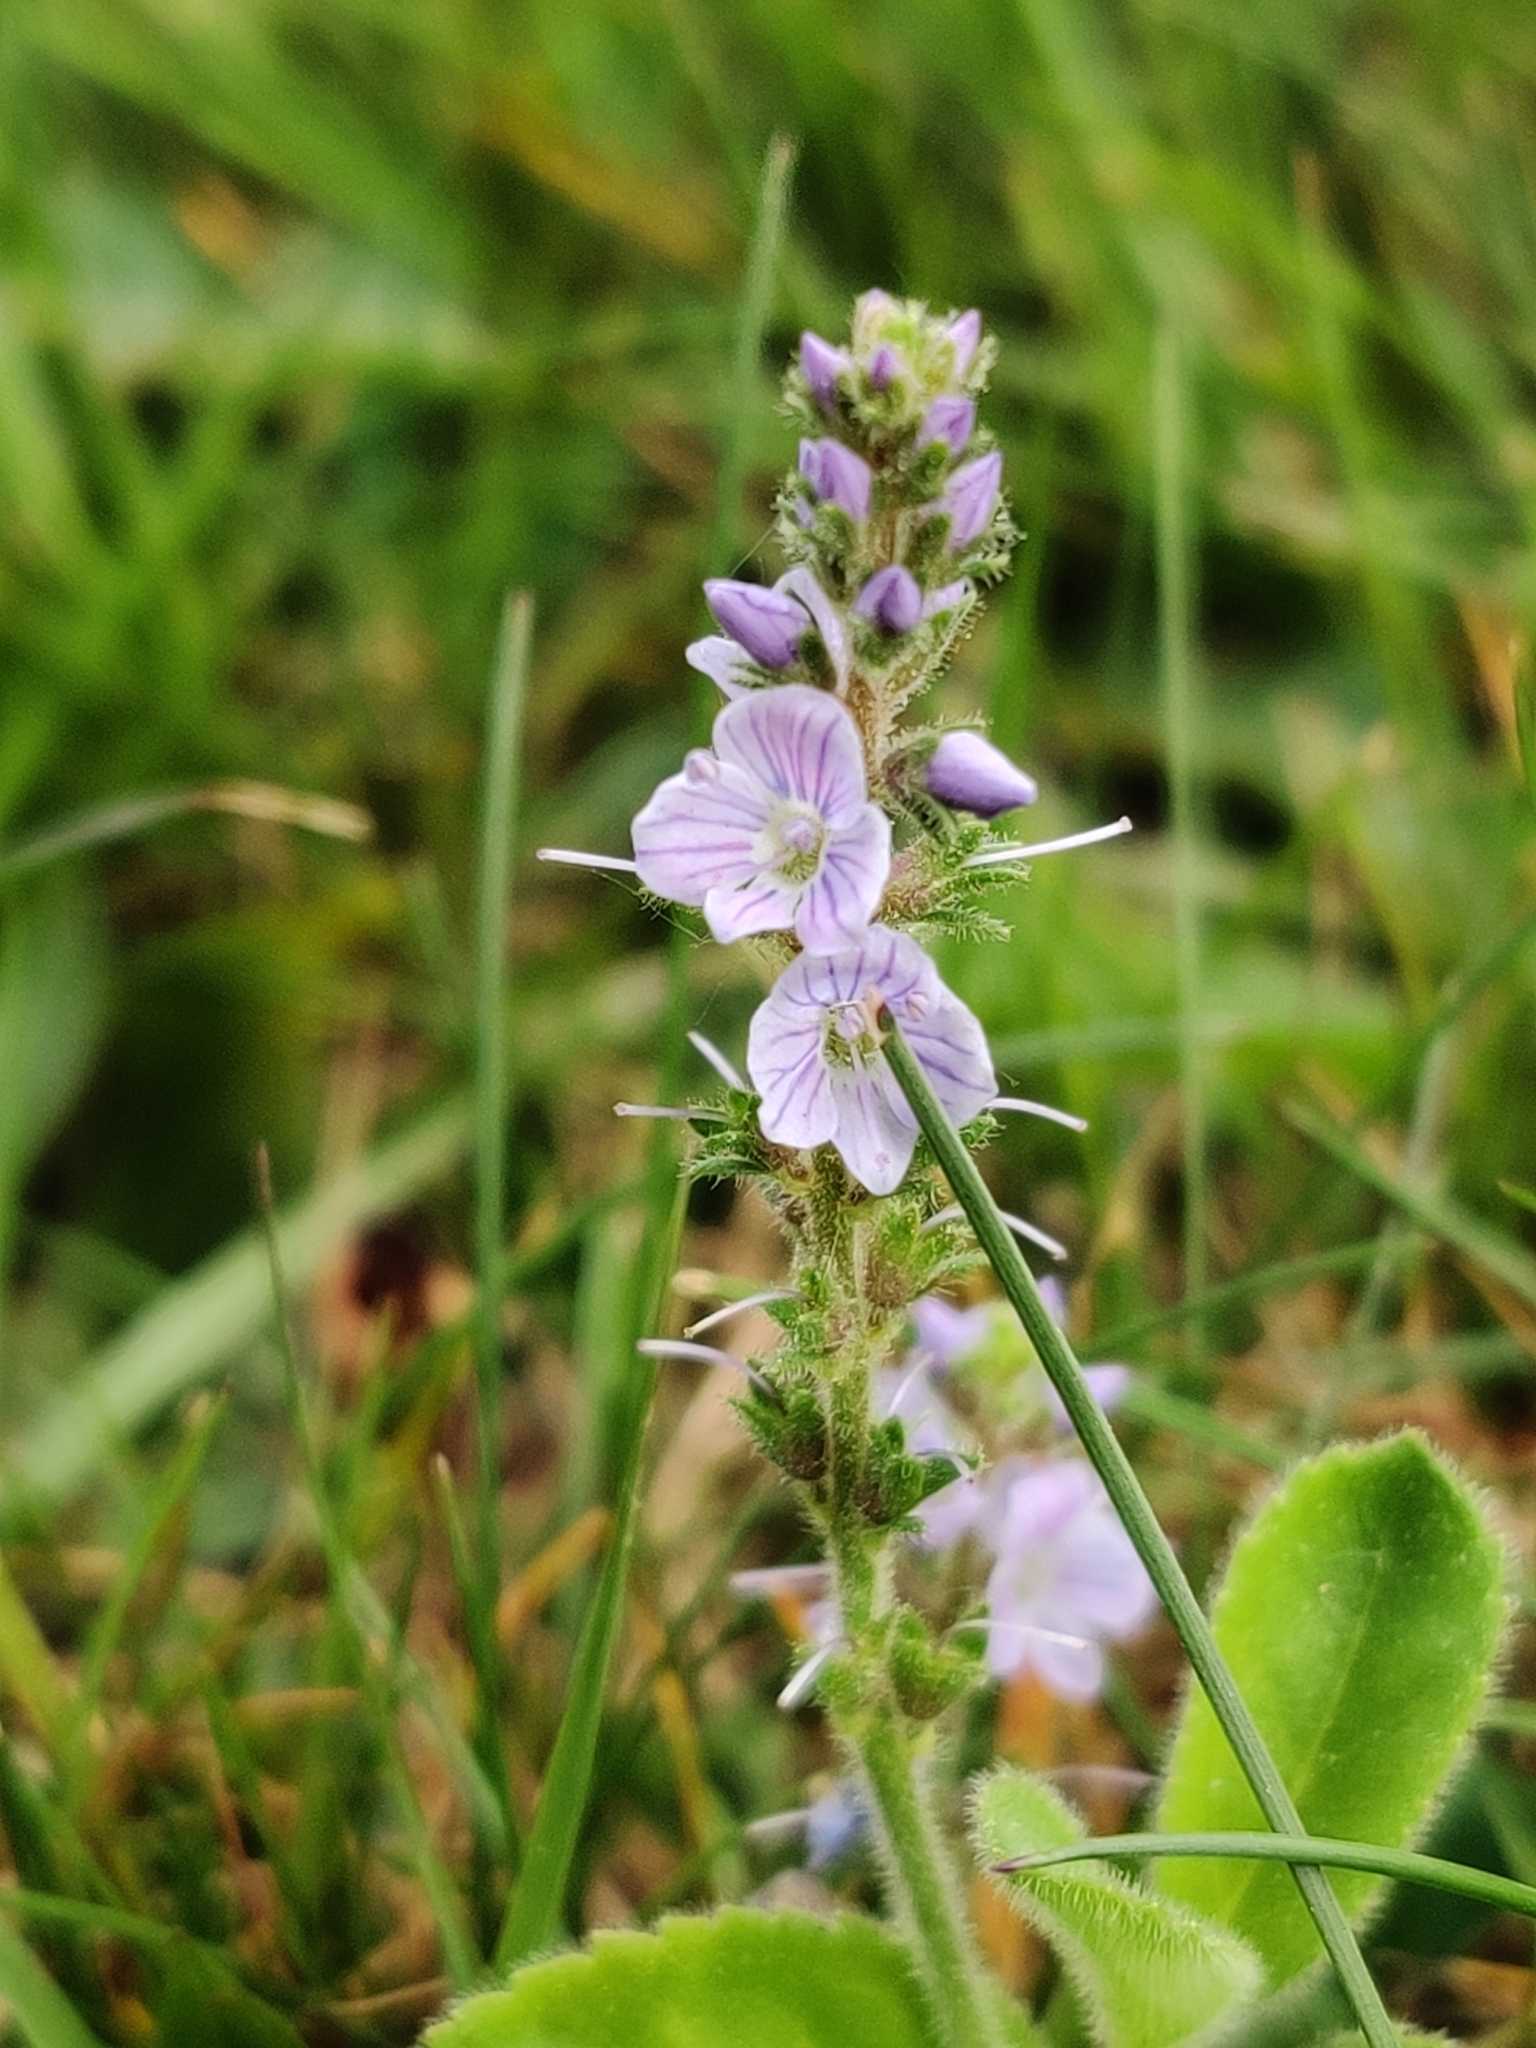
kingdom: Plantae
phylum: Tracheophyta
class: Magnoliopsida
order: Lamiales
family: Plantaginaceae
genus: Veronica
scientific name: Veronica officinalis
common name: Common speedwell
